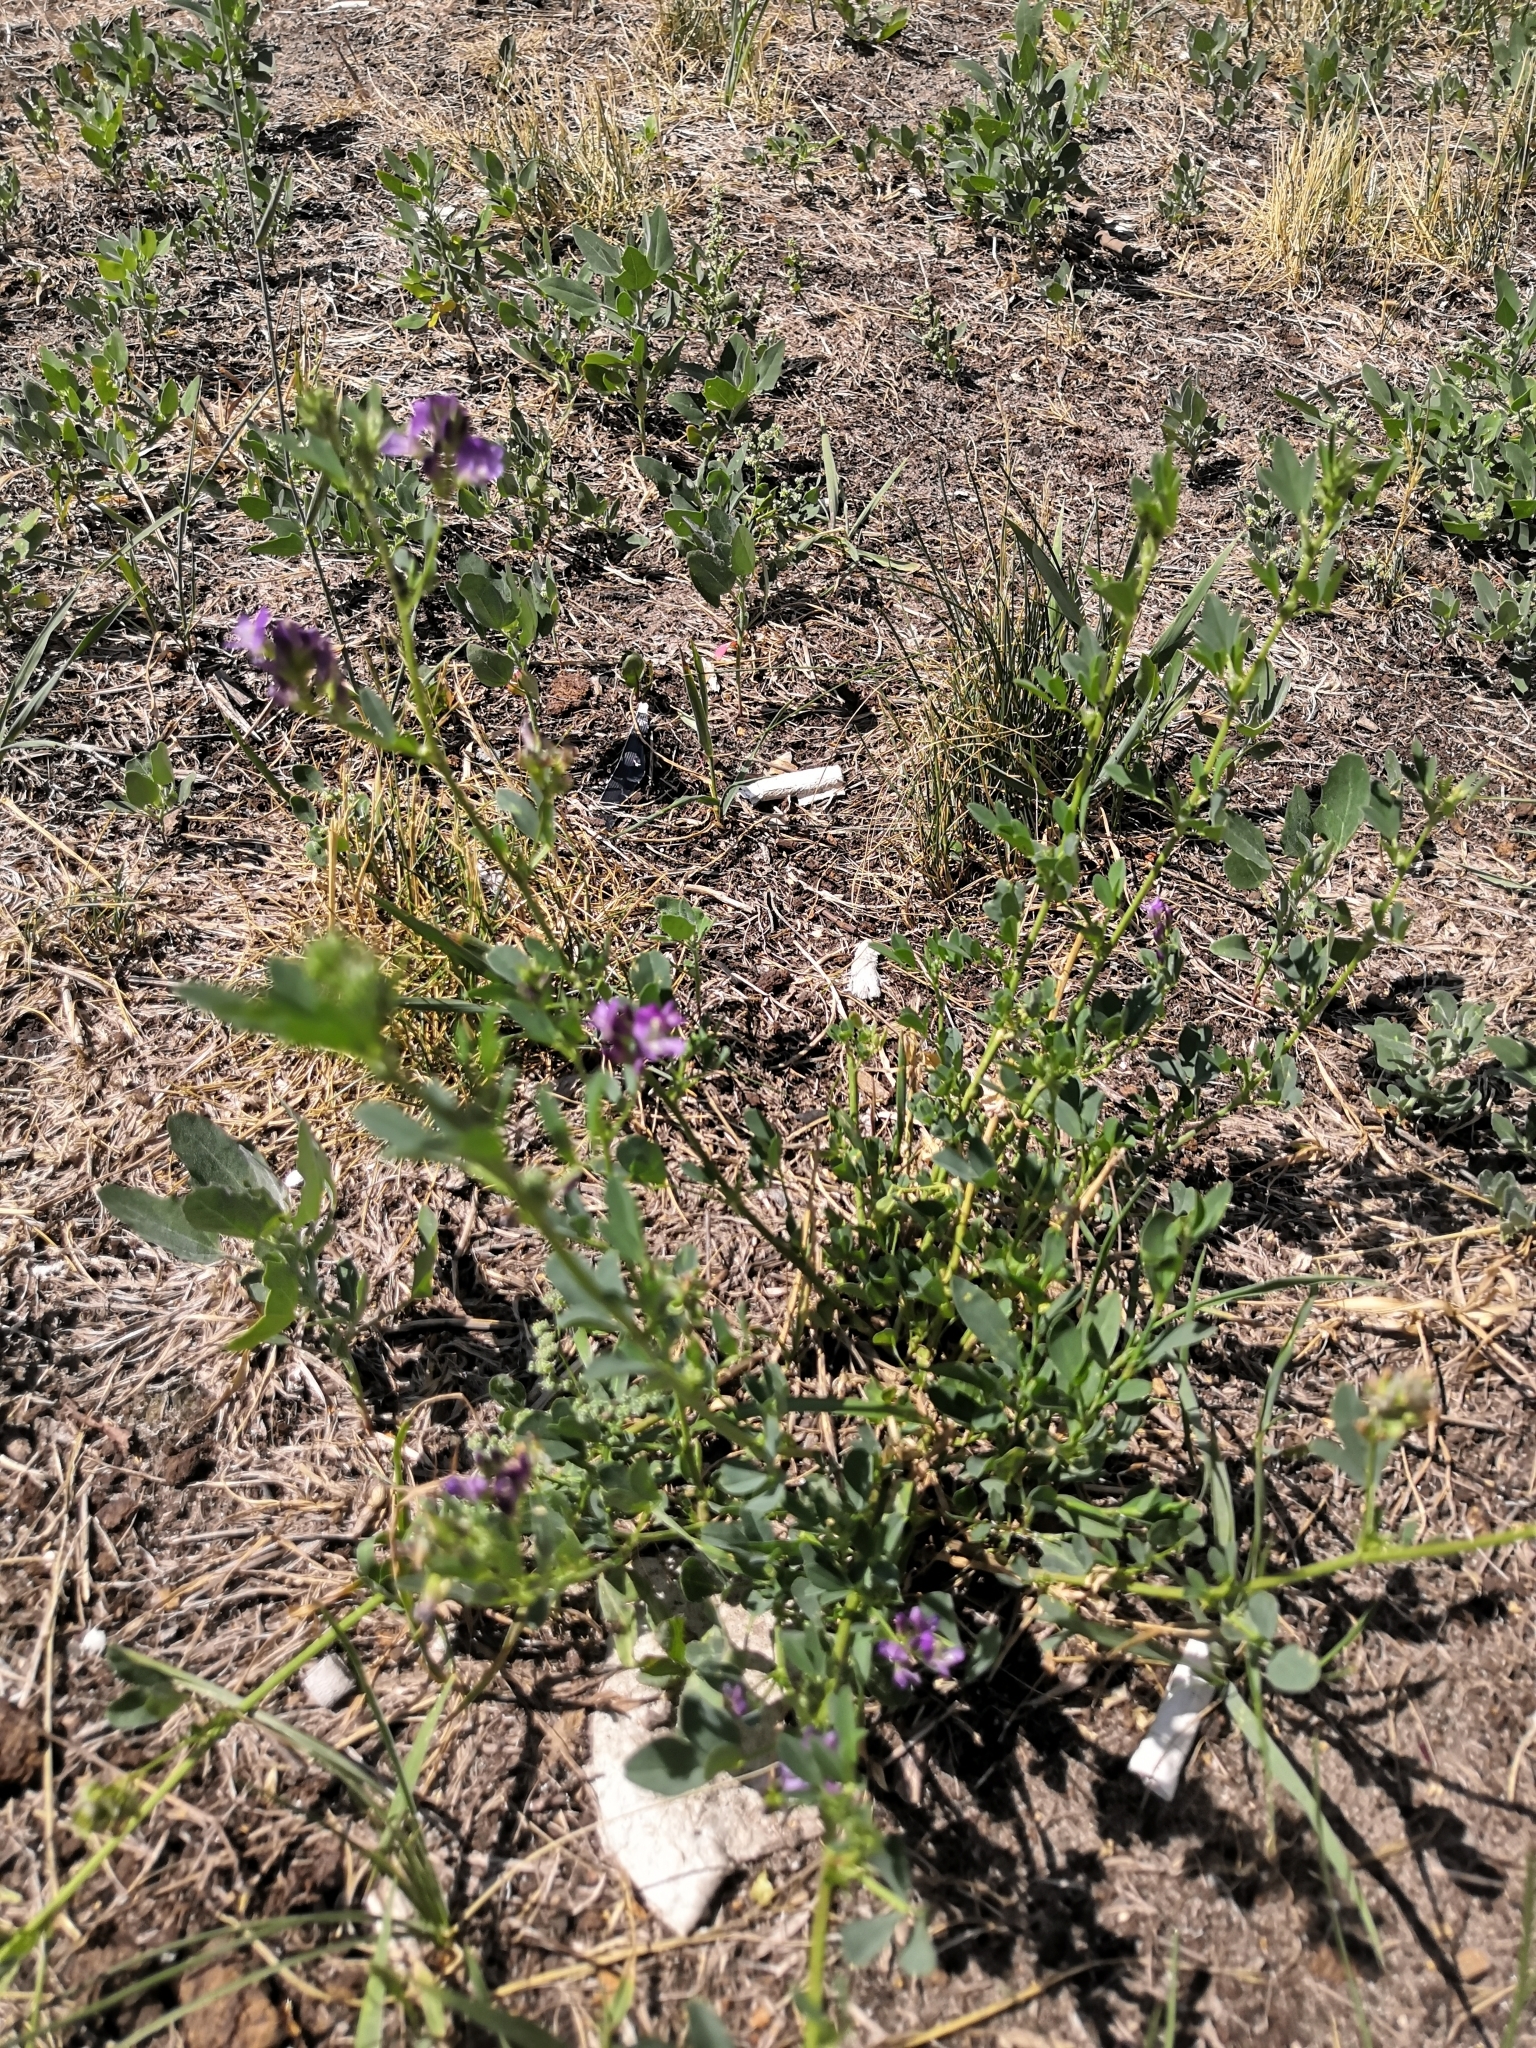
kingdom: Plantae
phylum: Tracheophyta
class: Magnoliopsida
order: Fabales
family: Fabaceae
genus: Medicago
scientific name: Medicago varia
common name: Sand lucerne
